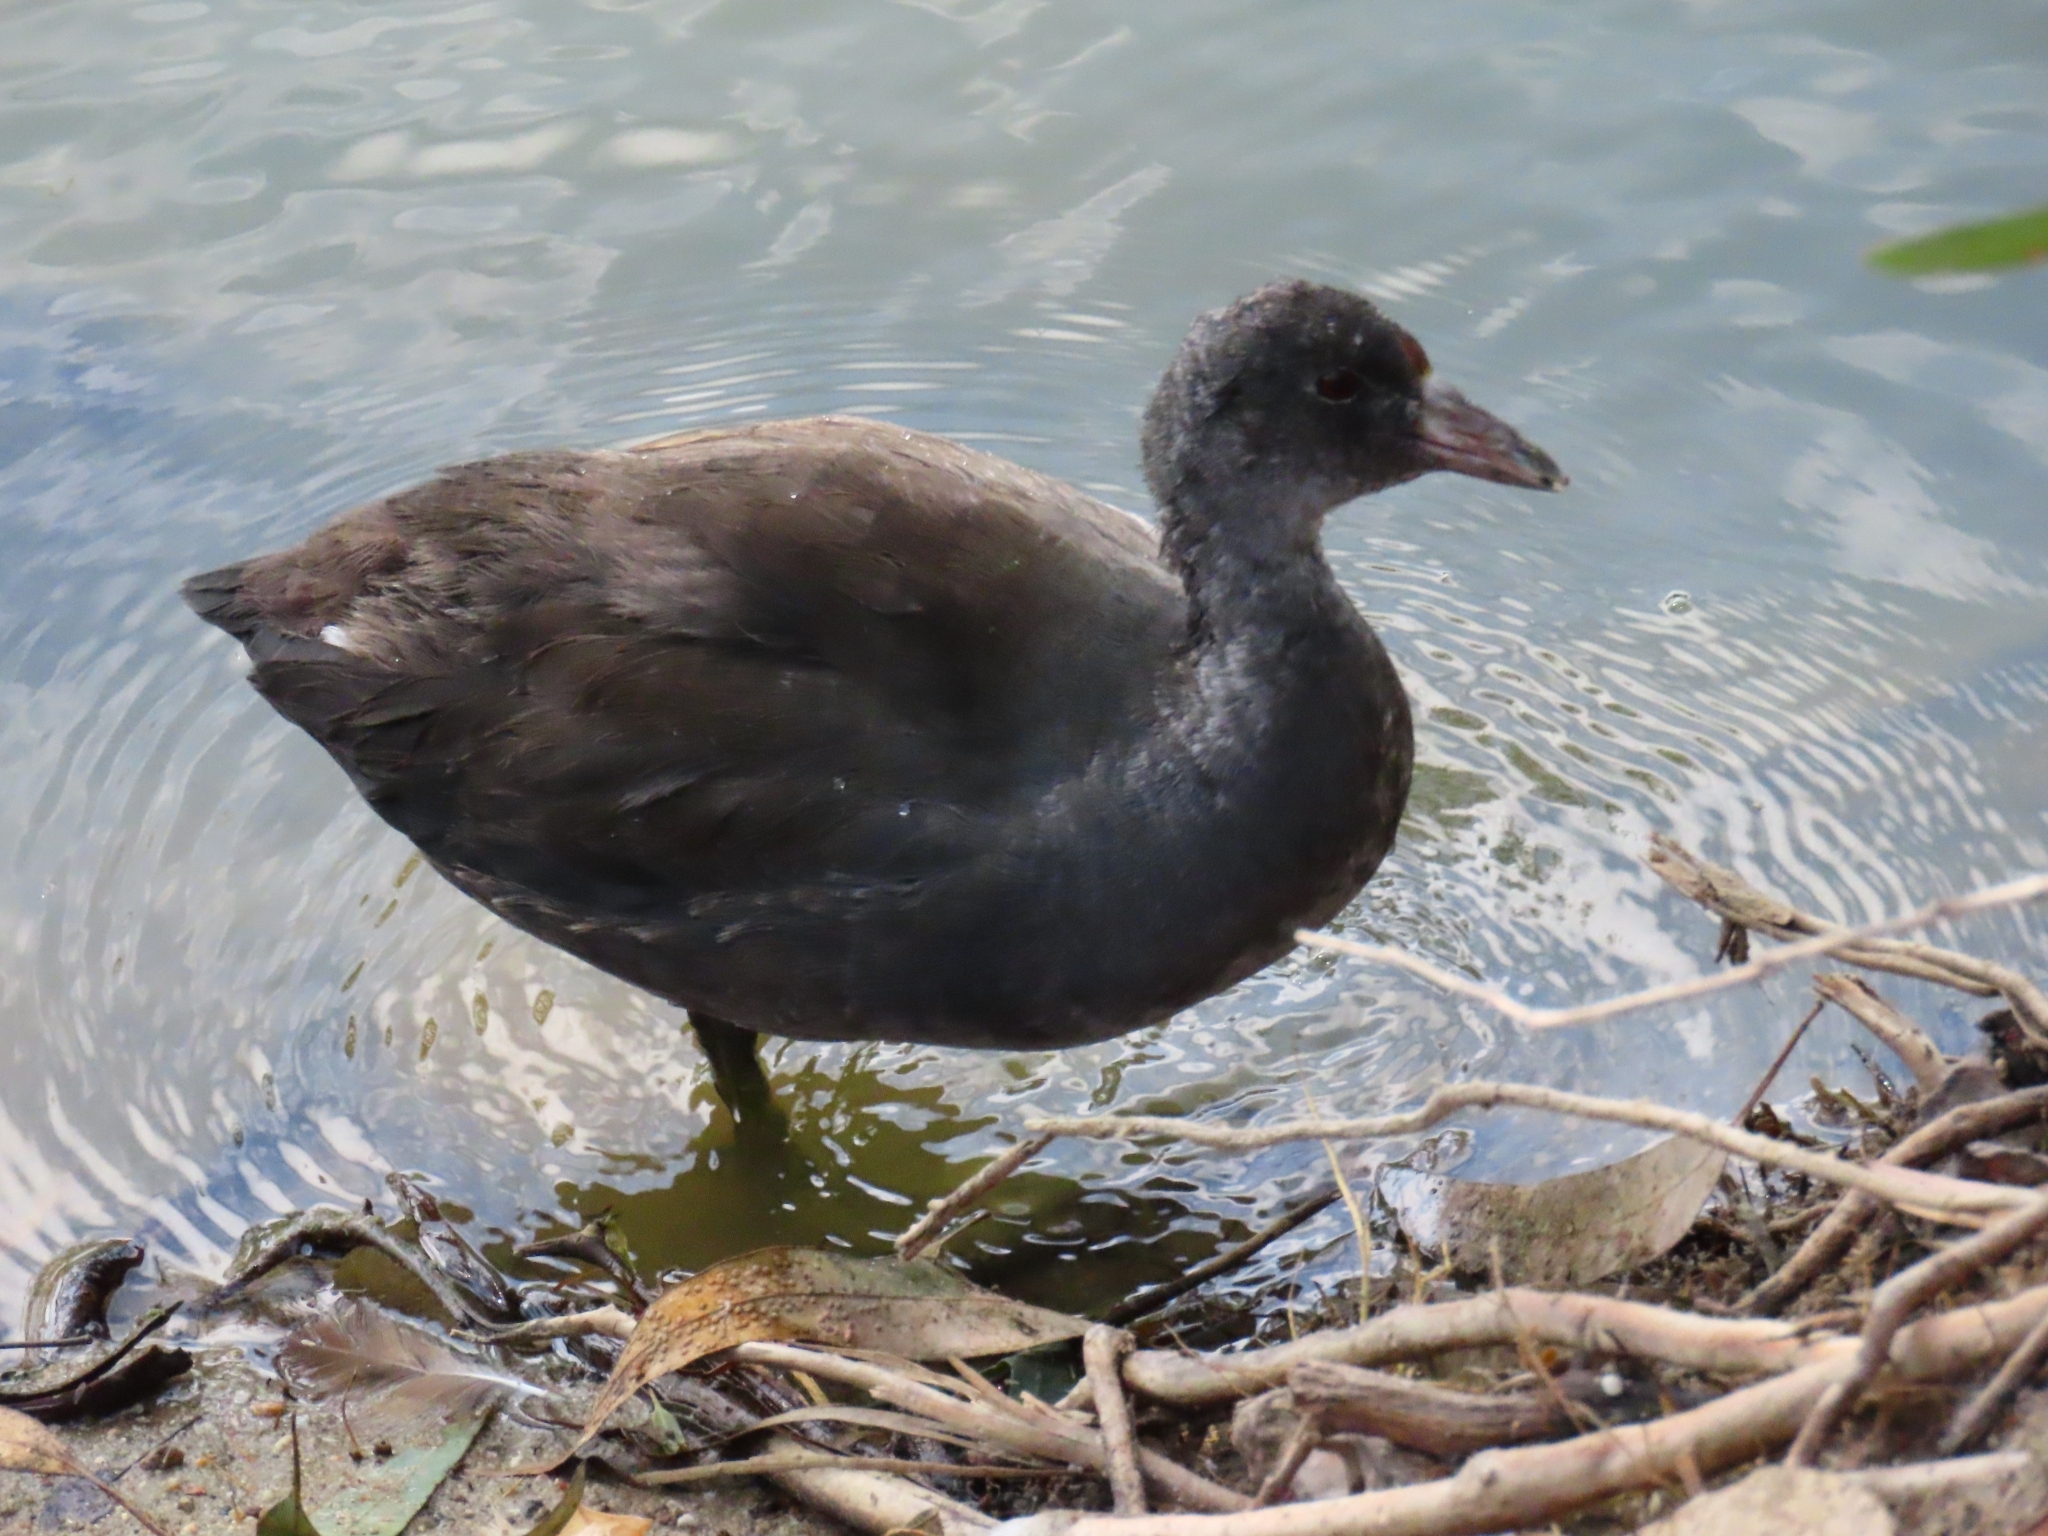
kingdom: Animalia
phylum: Chordata
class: Aves
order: Gruiformes
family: Rallidae
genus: Fulica
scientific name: Fulica americana
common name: American coot
